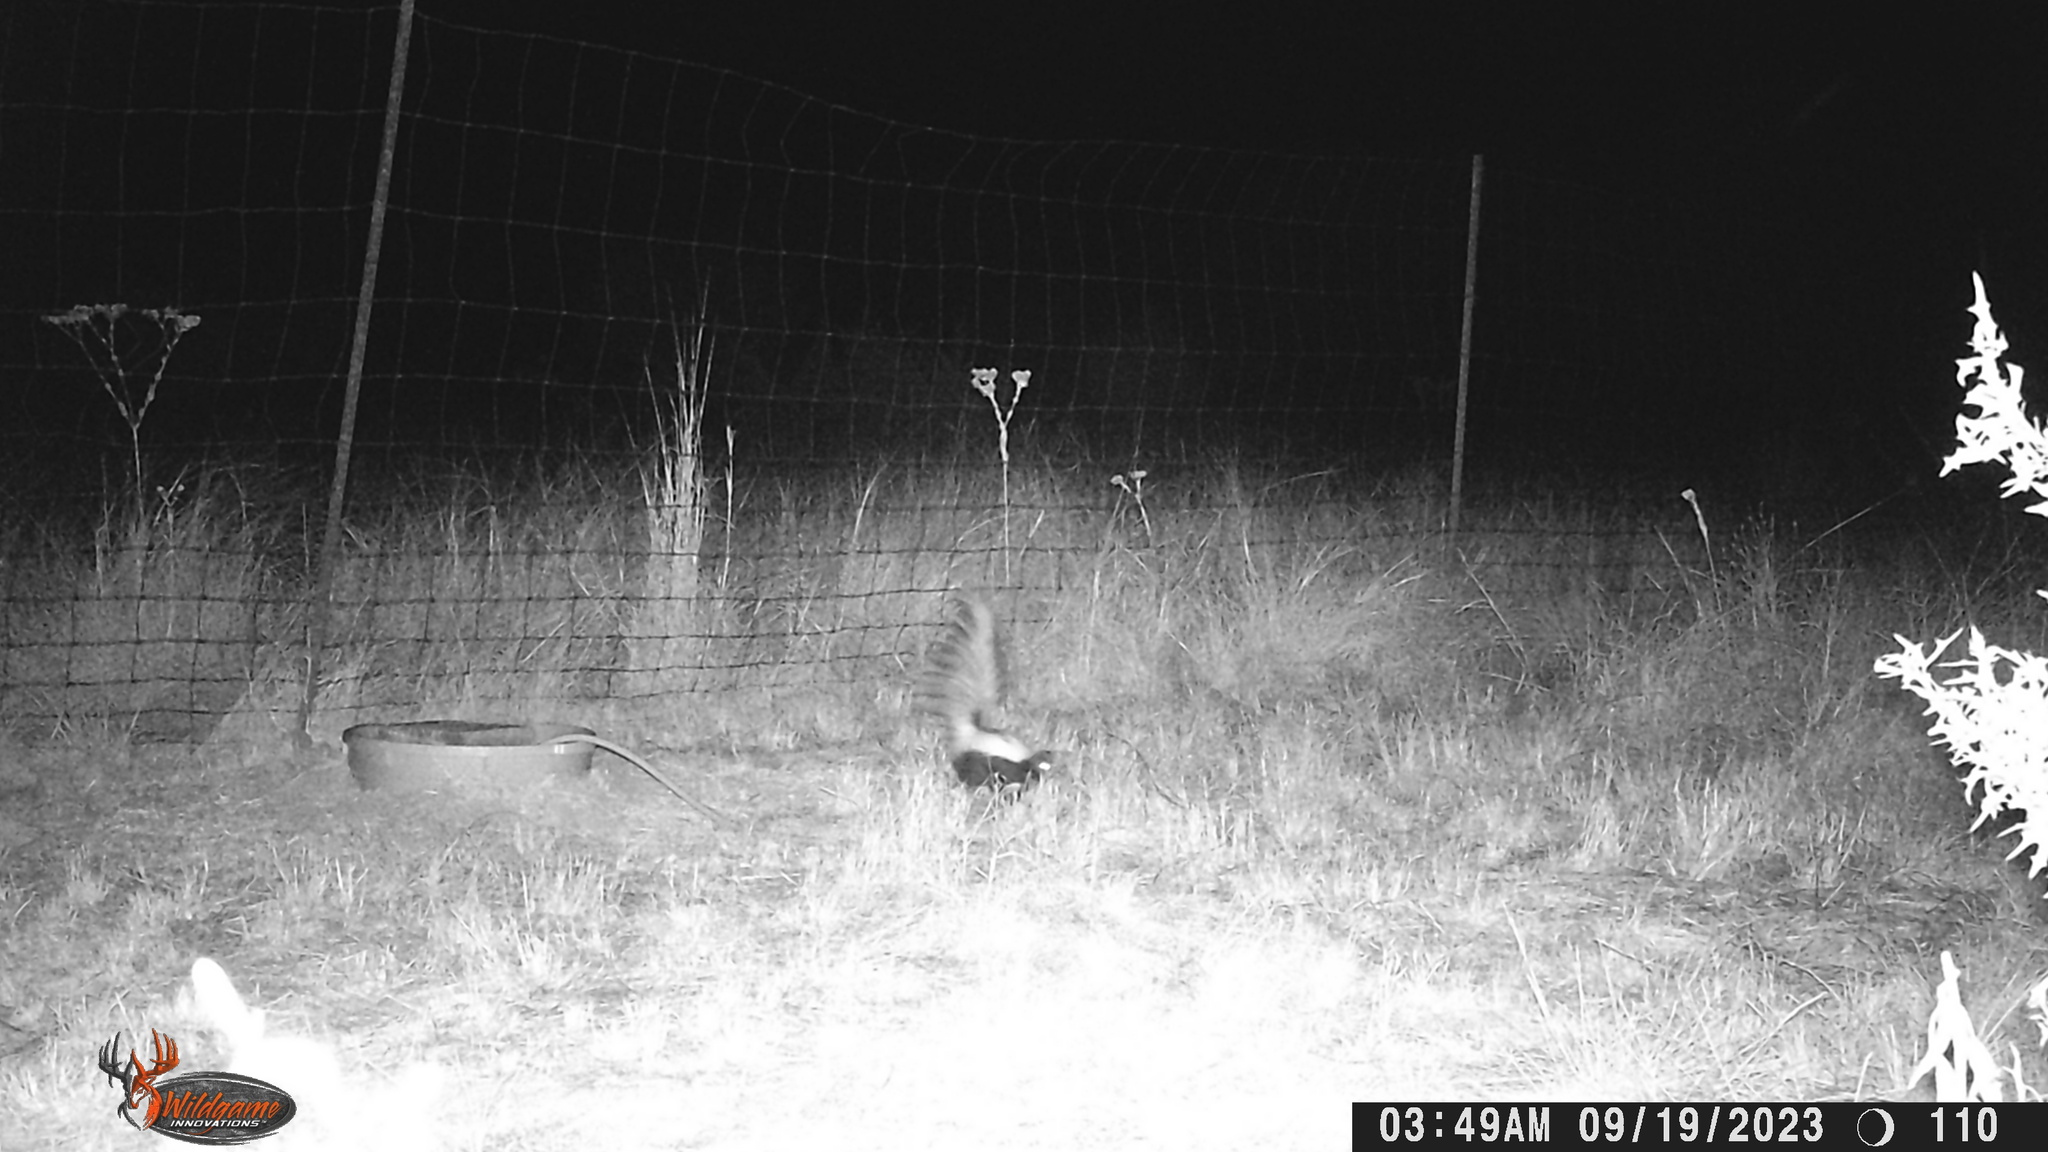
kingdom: Animalia
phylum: Chordata
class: Mammalia
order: Carnivora
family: Mephitidae
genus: Mephitis
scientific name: Mephitis mephitis
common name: Striped skunk
